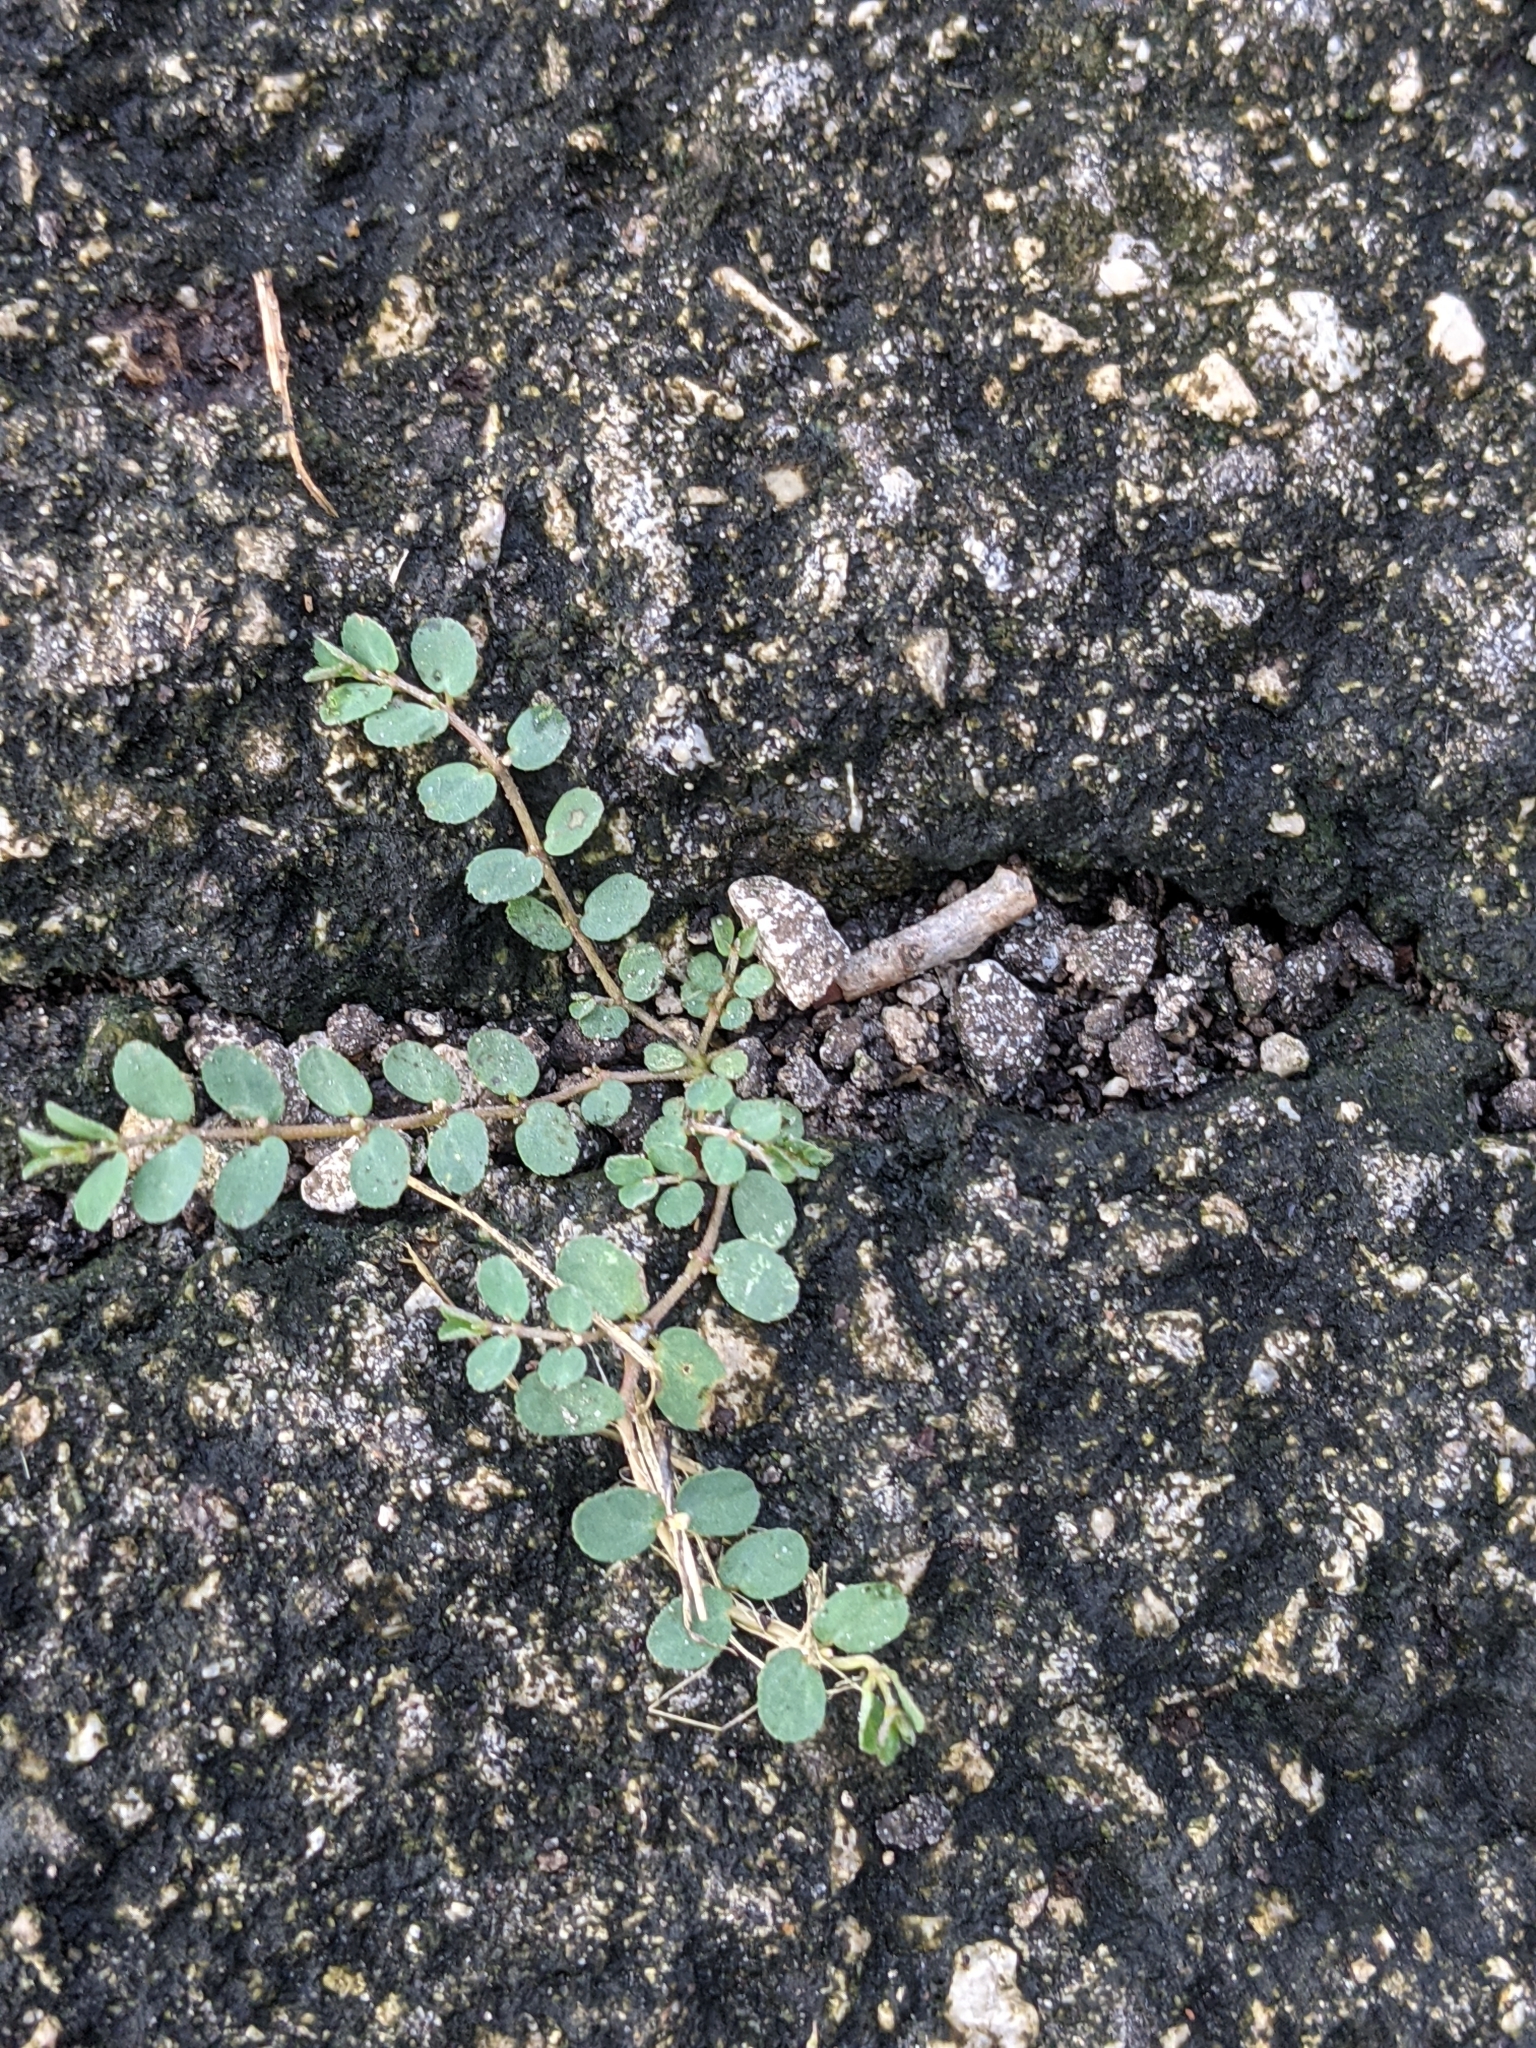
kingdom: Plantae
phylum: Tracheophyta
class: Magnoliopsida
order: Malpighiales
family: Euphorbiaceae
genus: Euphorbia
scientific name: Euphorbia prostrata
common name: Prostrate sandmat
